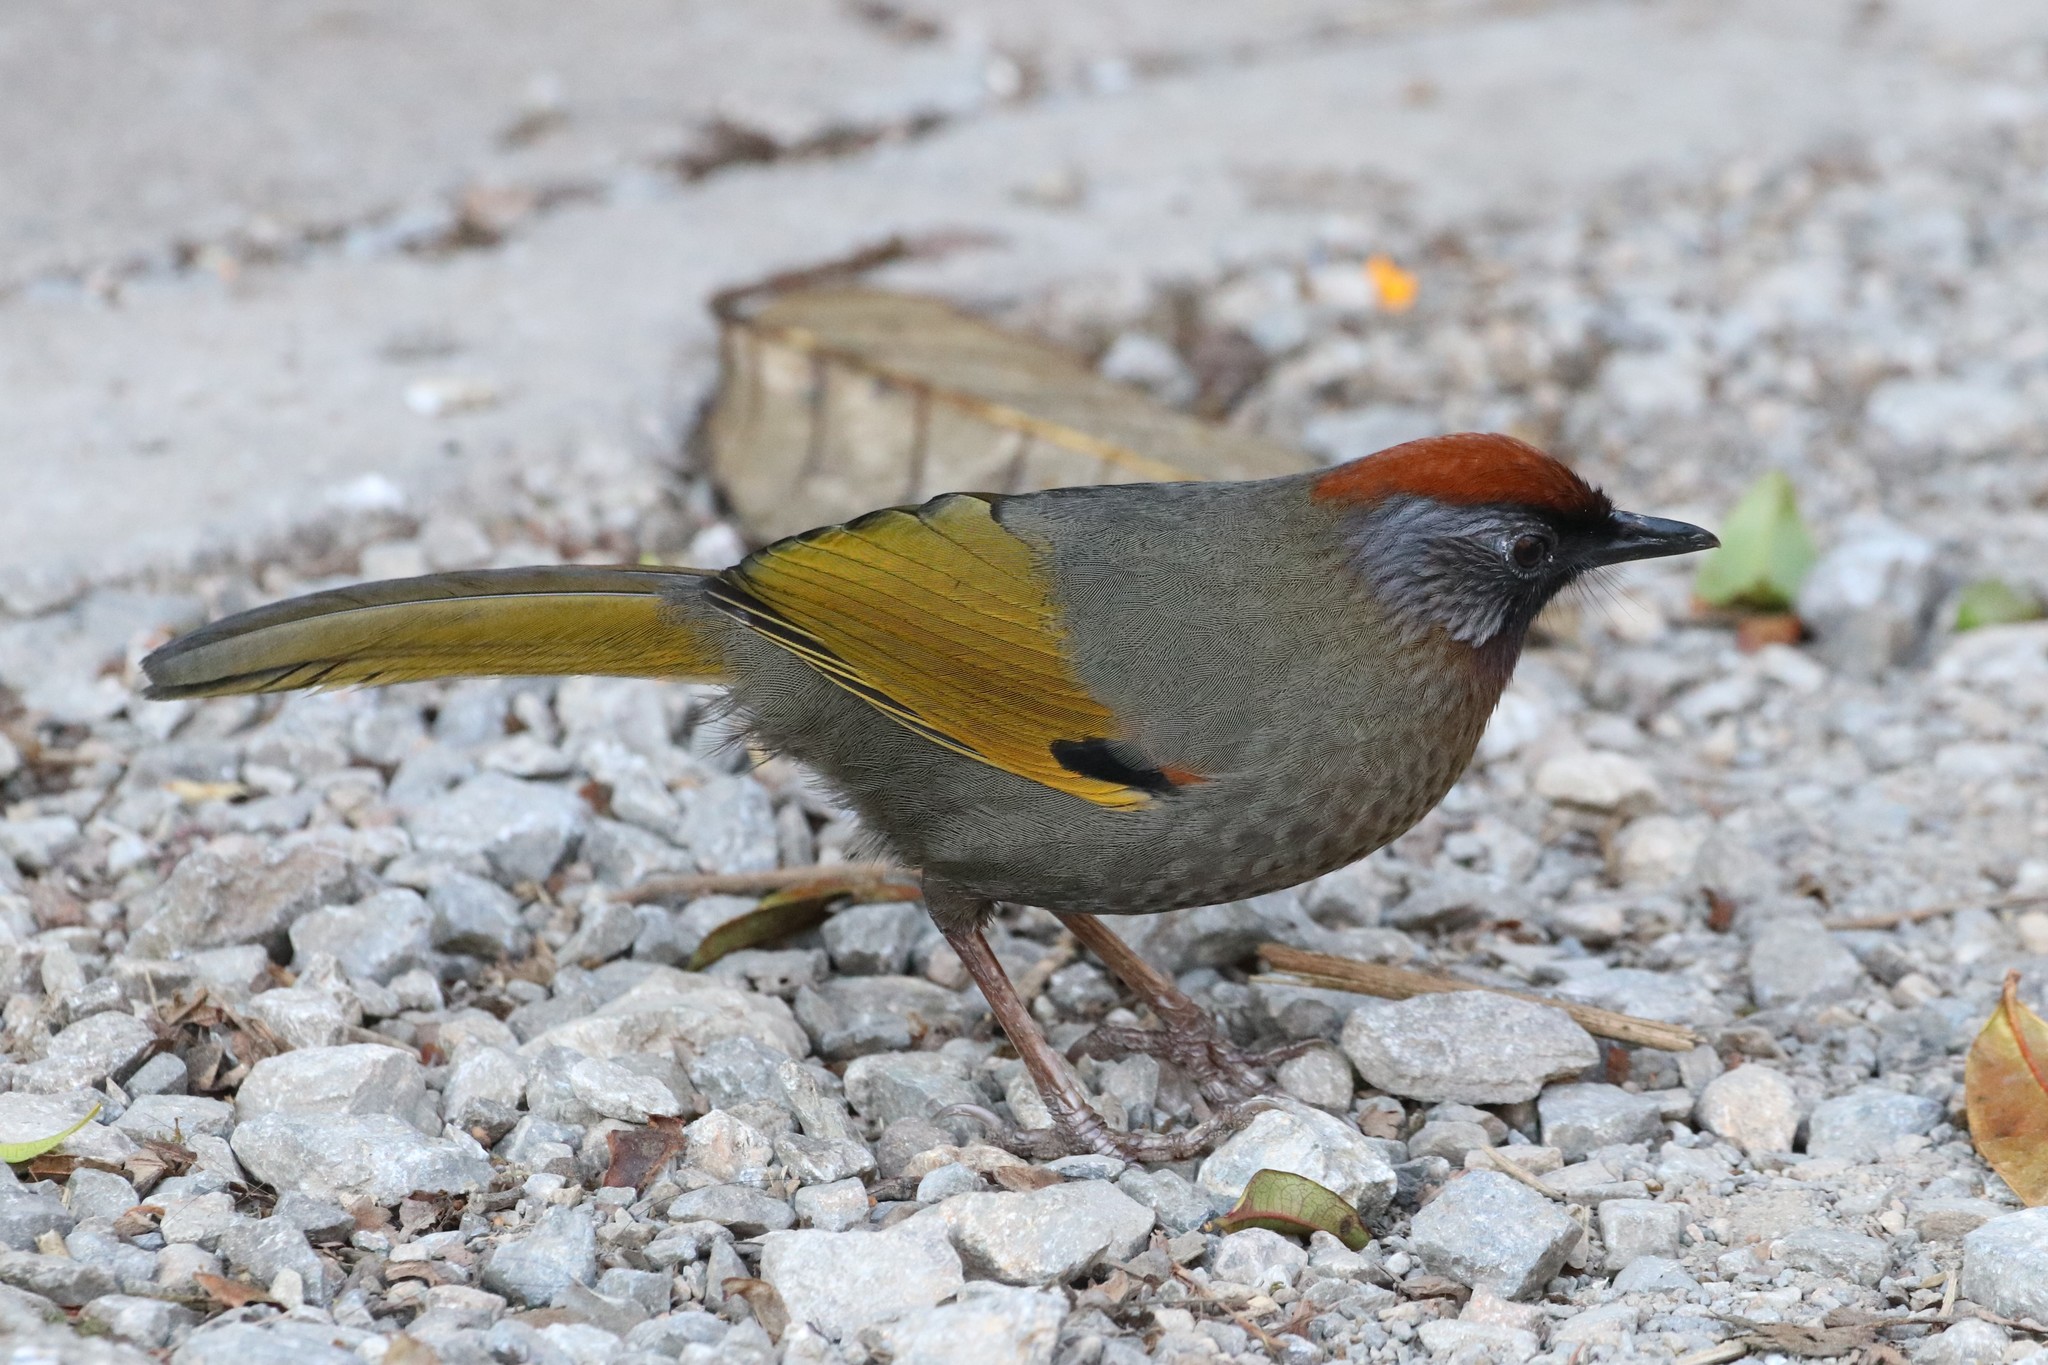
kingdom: Animalia
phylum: Chordata
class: Aves
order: Passeriformes
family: Leiothrichidae
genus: Trochalopteron
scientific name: Trochalopteron melanostigma
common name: Silver-eared laughingthrush
